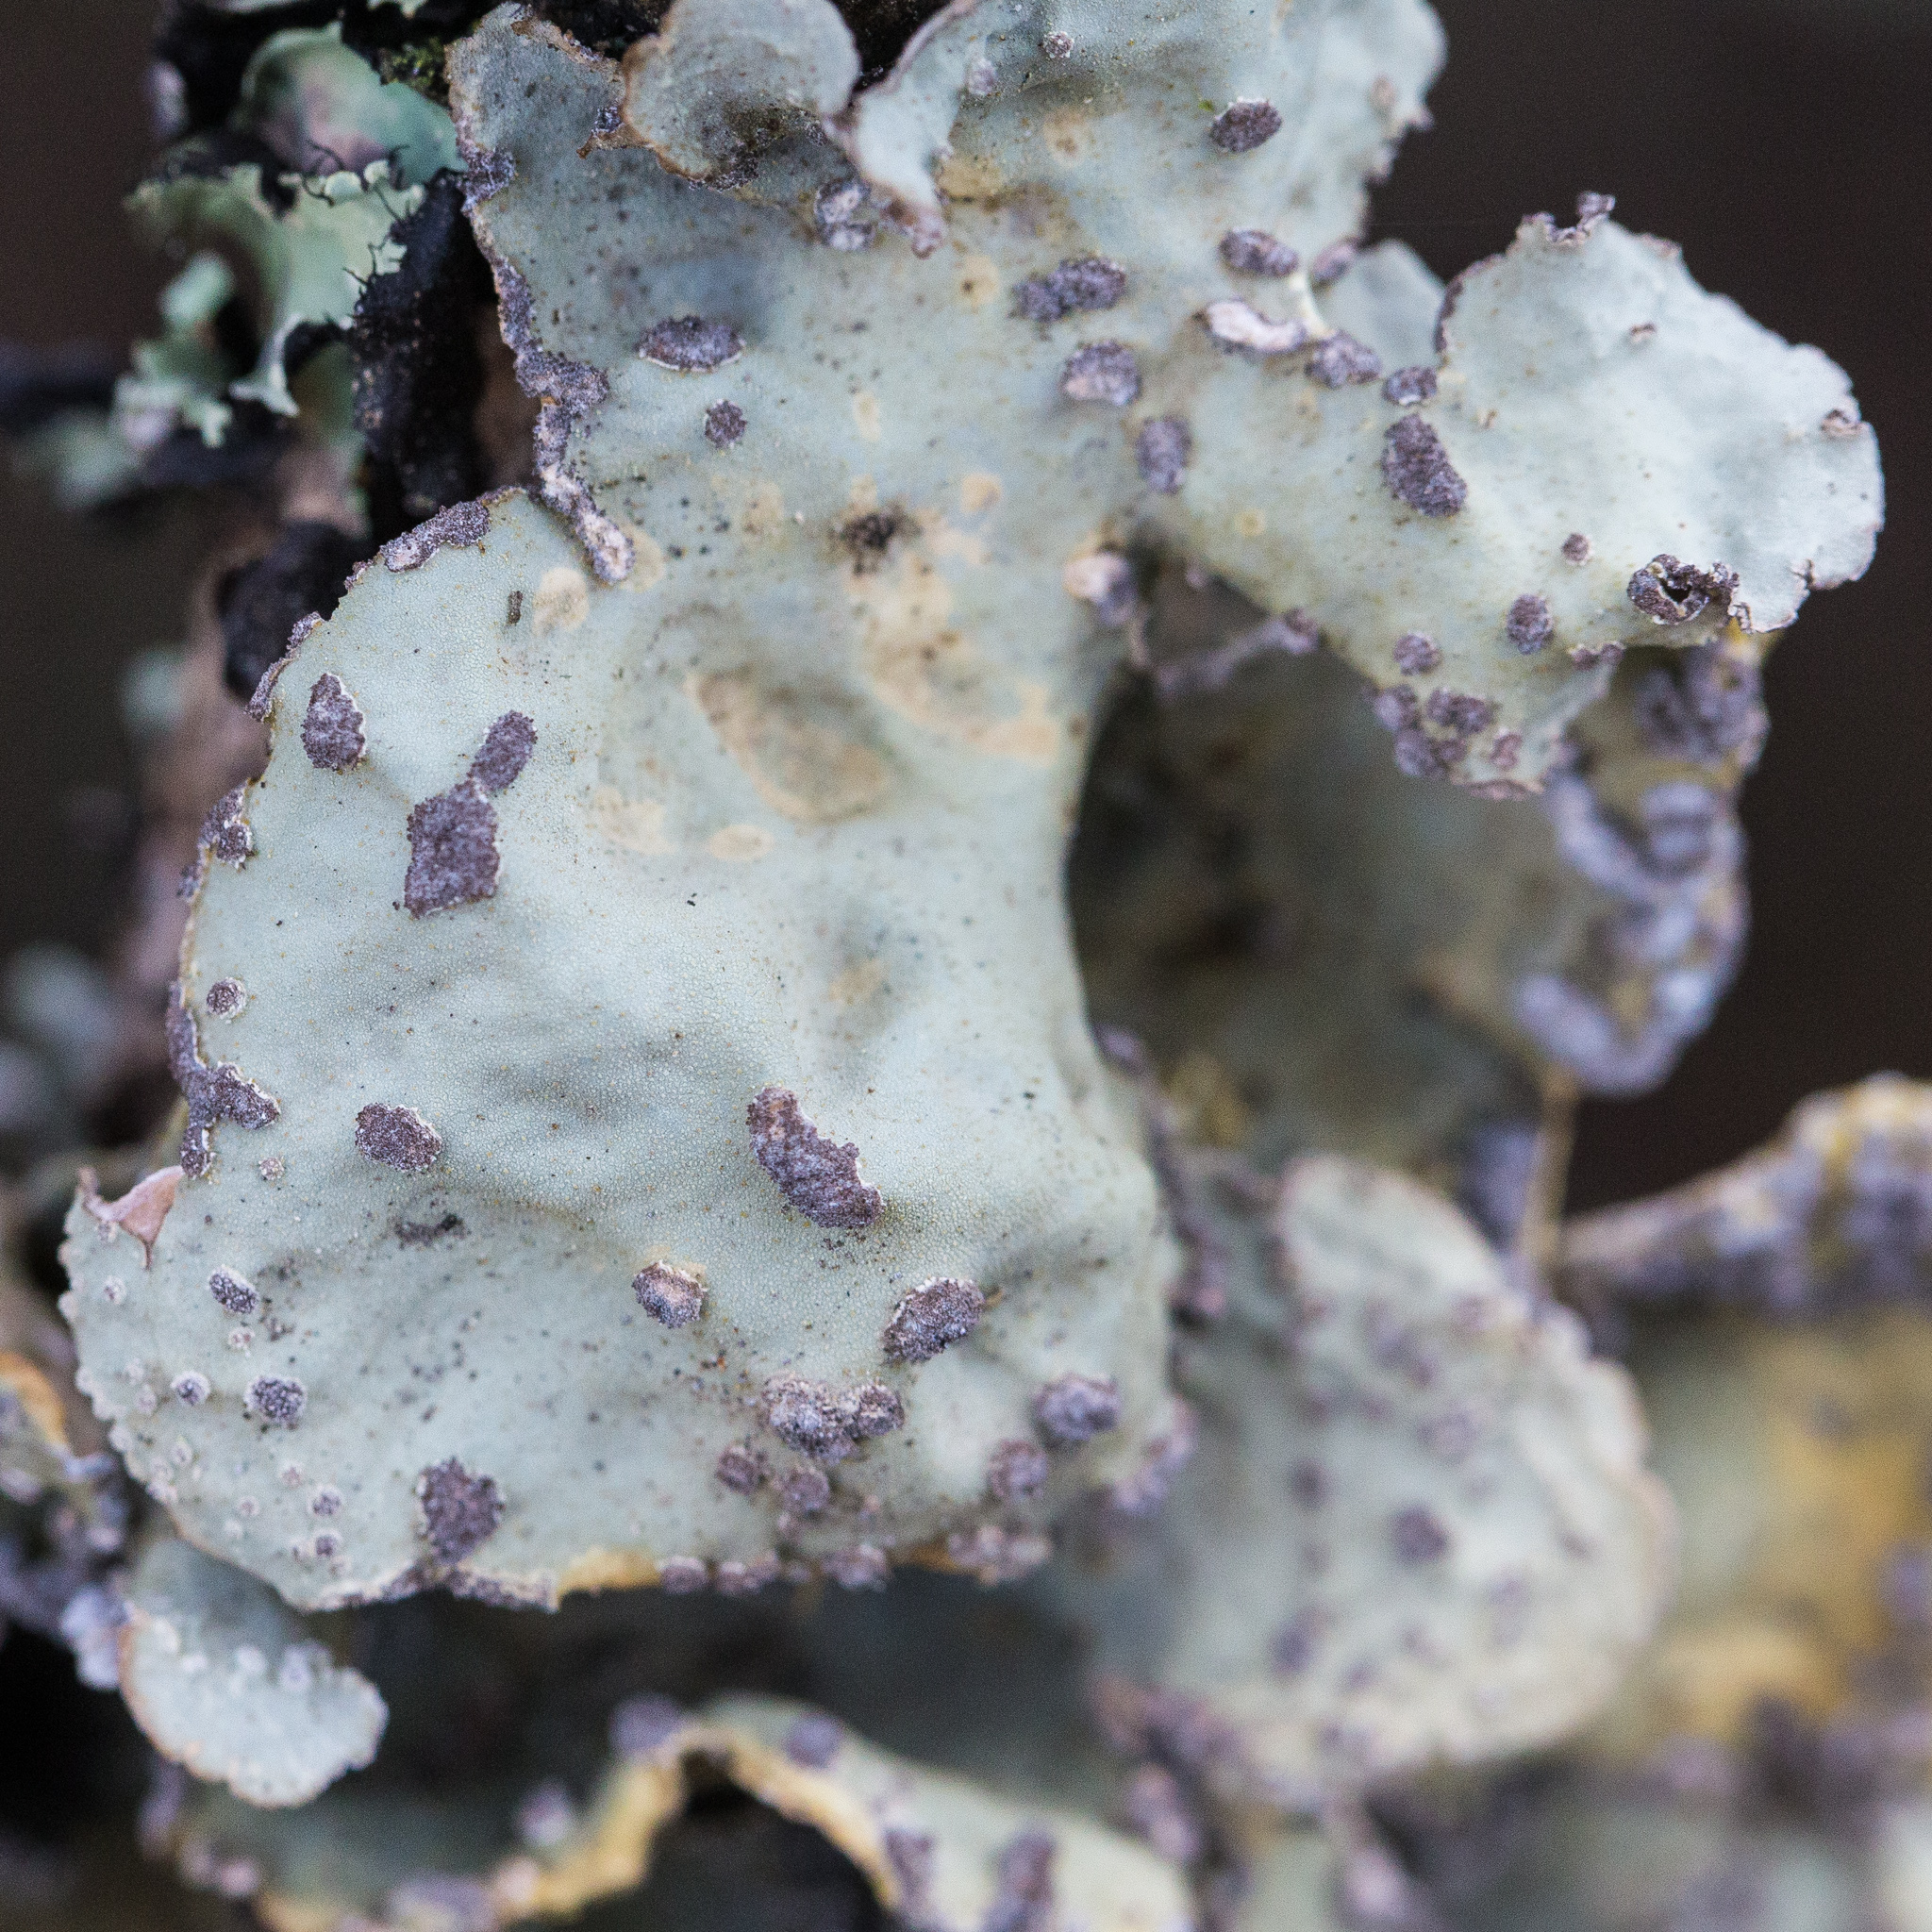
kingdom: Fungi
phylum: Ascomycota
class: Lecanoromycetes
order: Peltigerales
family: Lobariaceae
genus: Lobarina
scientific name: Lobarina scrobiculata
